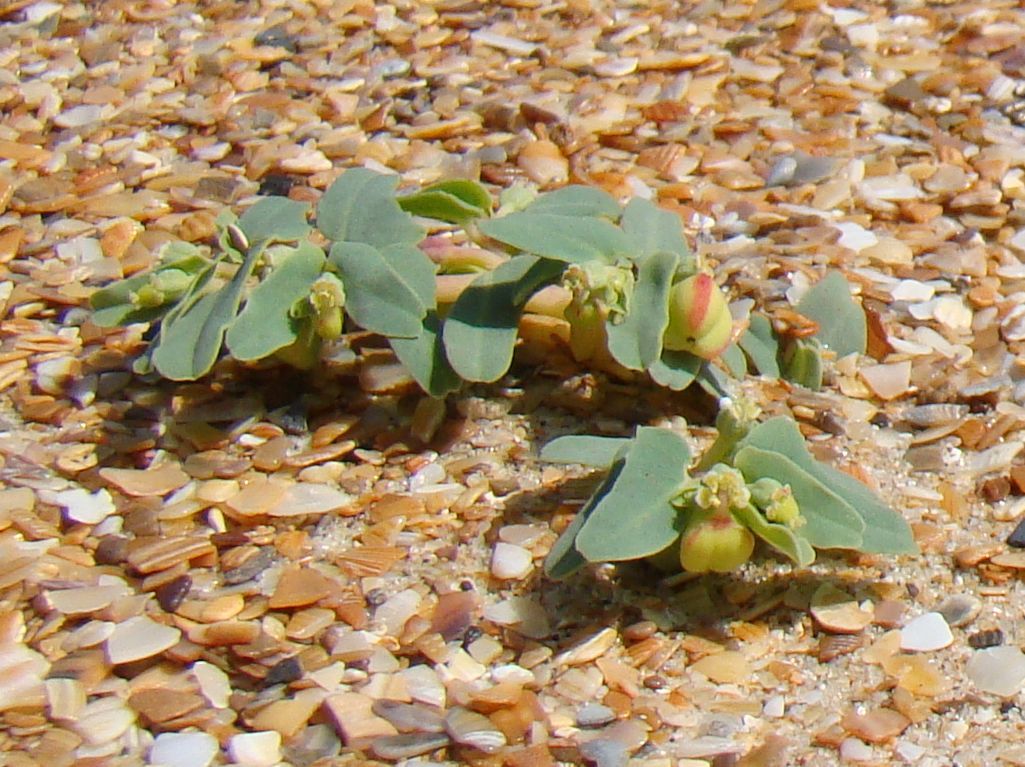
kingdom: Plantae
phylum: Tracheophyta
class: Magnoliopsida
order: Malpighiales
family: Euphorbiaceae
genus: Euphorbia
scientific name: Euphorbia peplis
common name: Purple spurge
